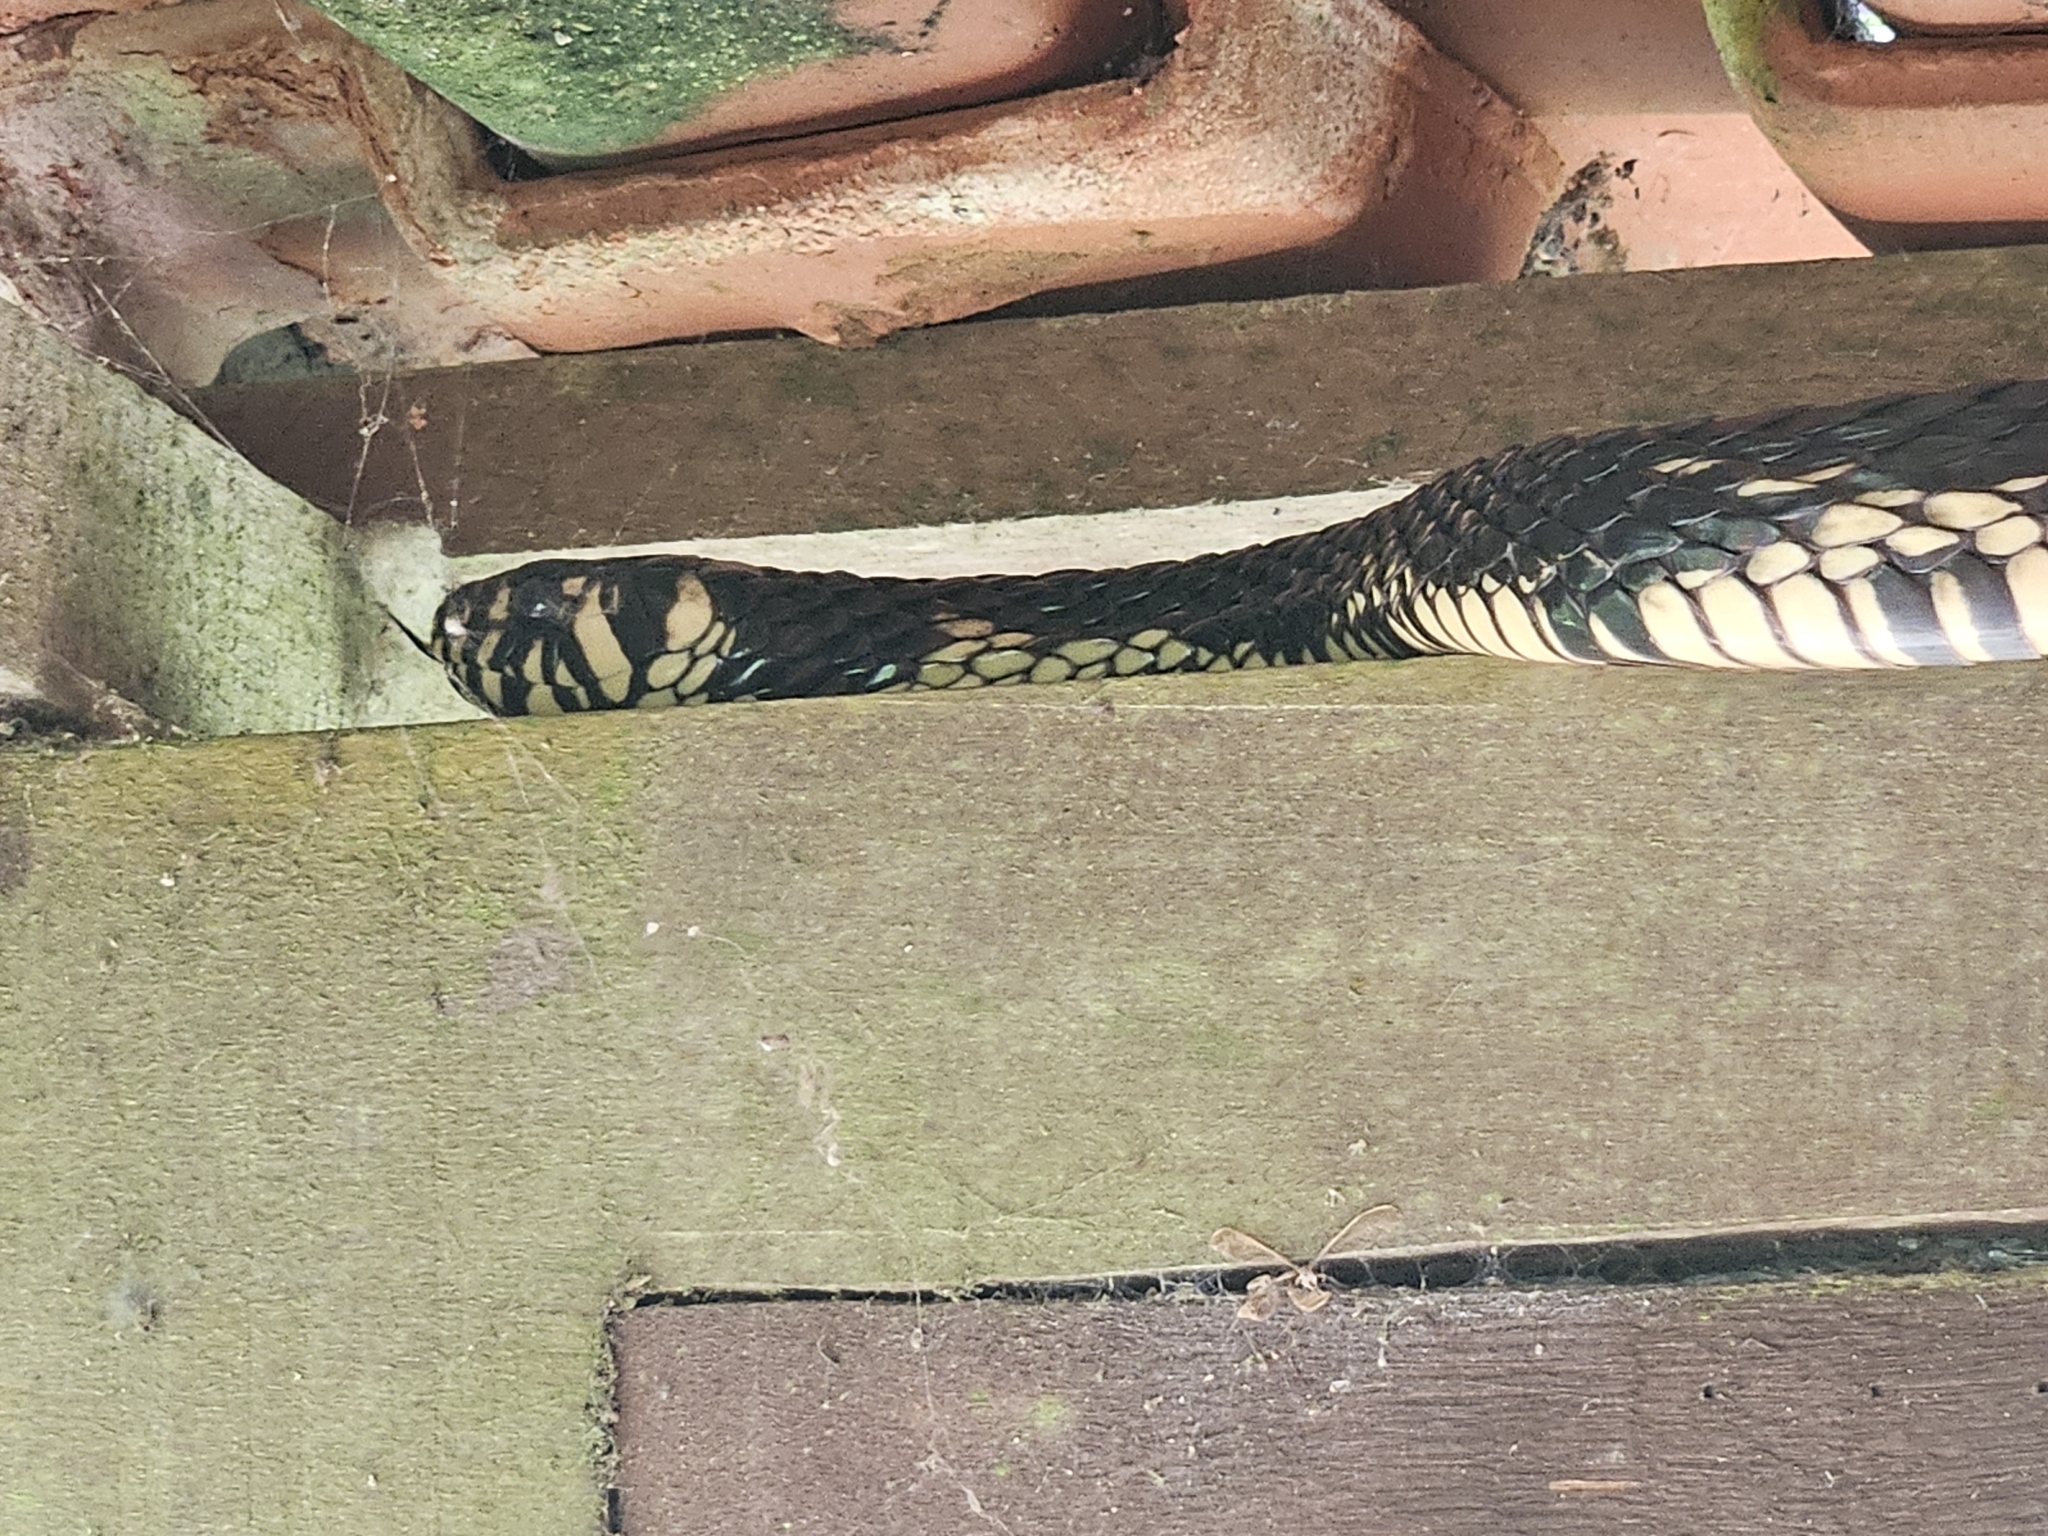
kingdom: Animalia
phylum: Chordata
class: Squamata
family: Colubridae
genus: Spilotes
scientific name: Spilotes pullatus
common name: Chicken snake
